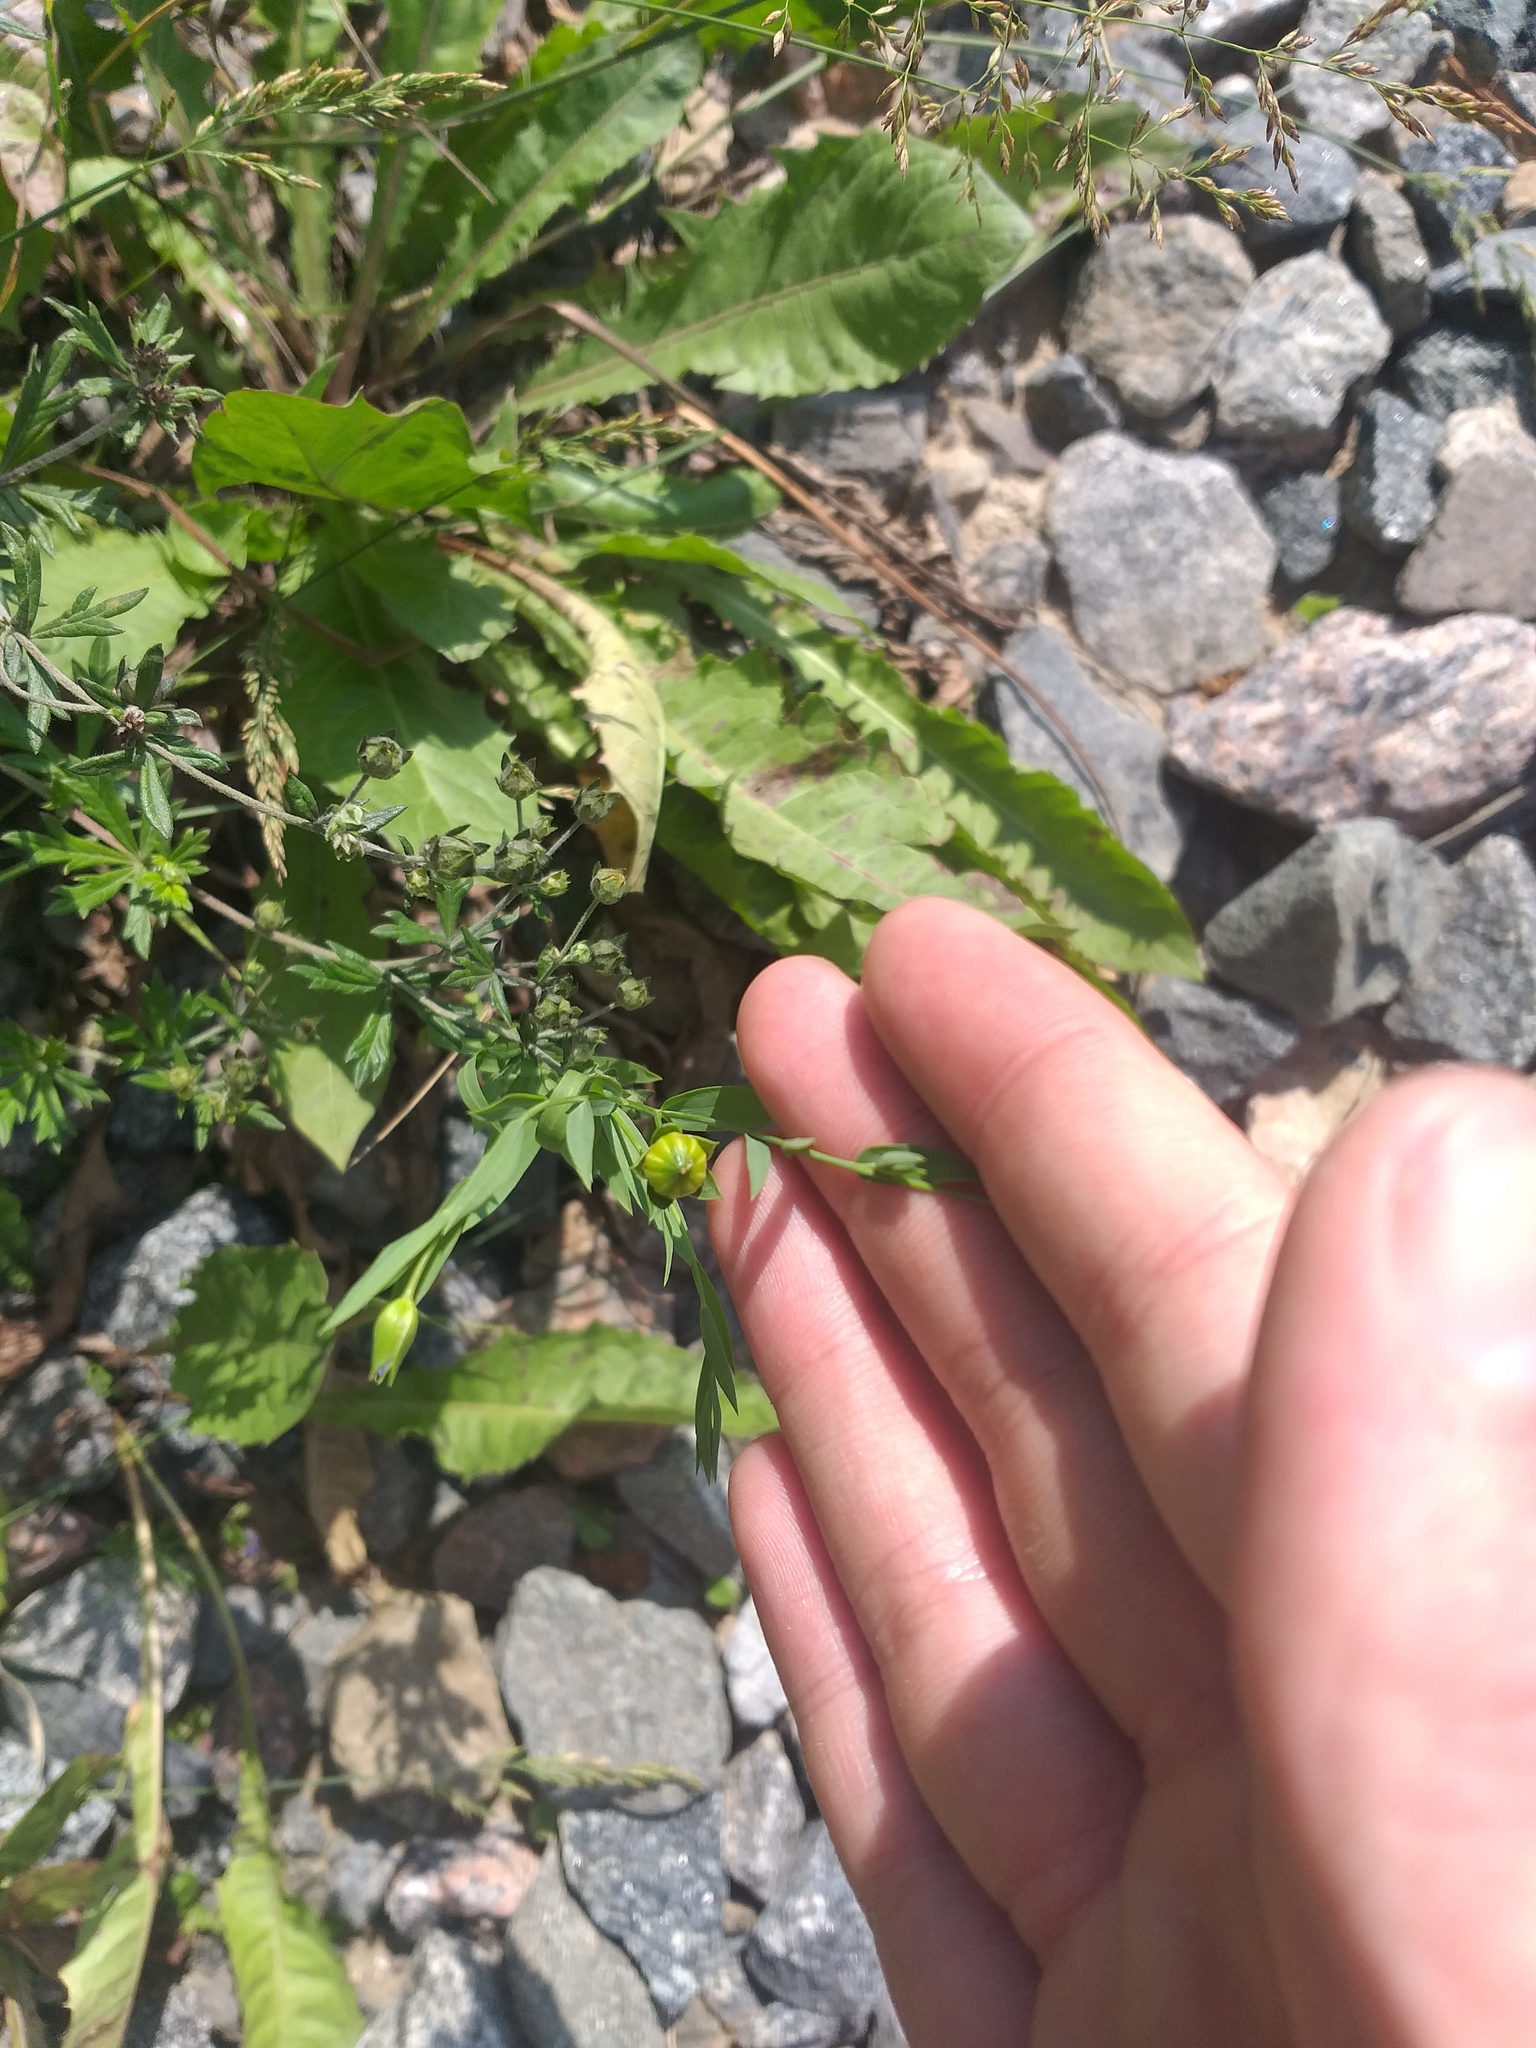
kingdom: Plantae
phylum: Tracheophyta
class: Magnoliopsida
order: Malpighiales
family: Linaceae
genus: Linum
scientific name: Linum usitatissimum
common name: Flax
